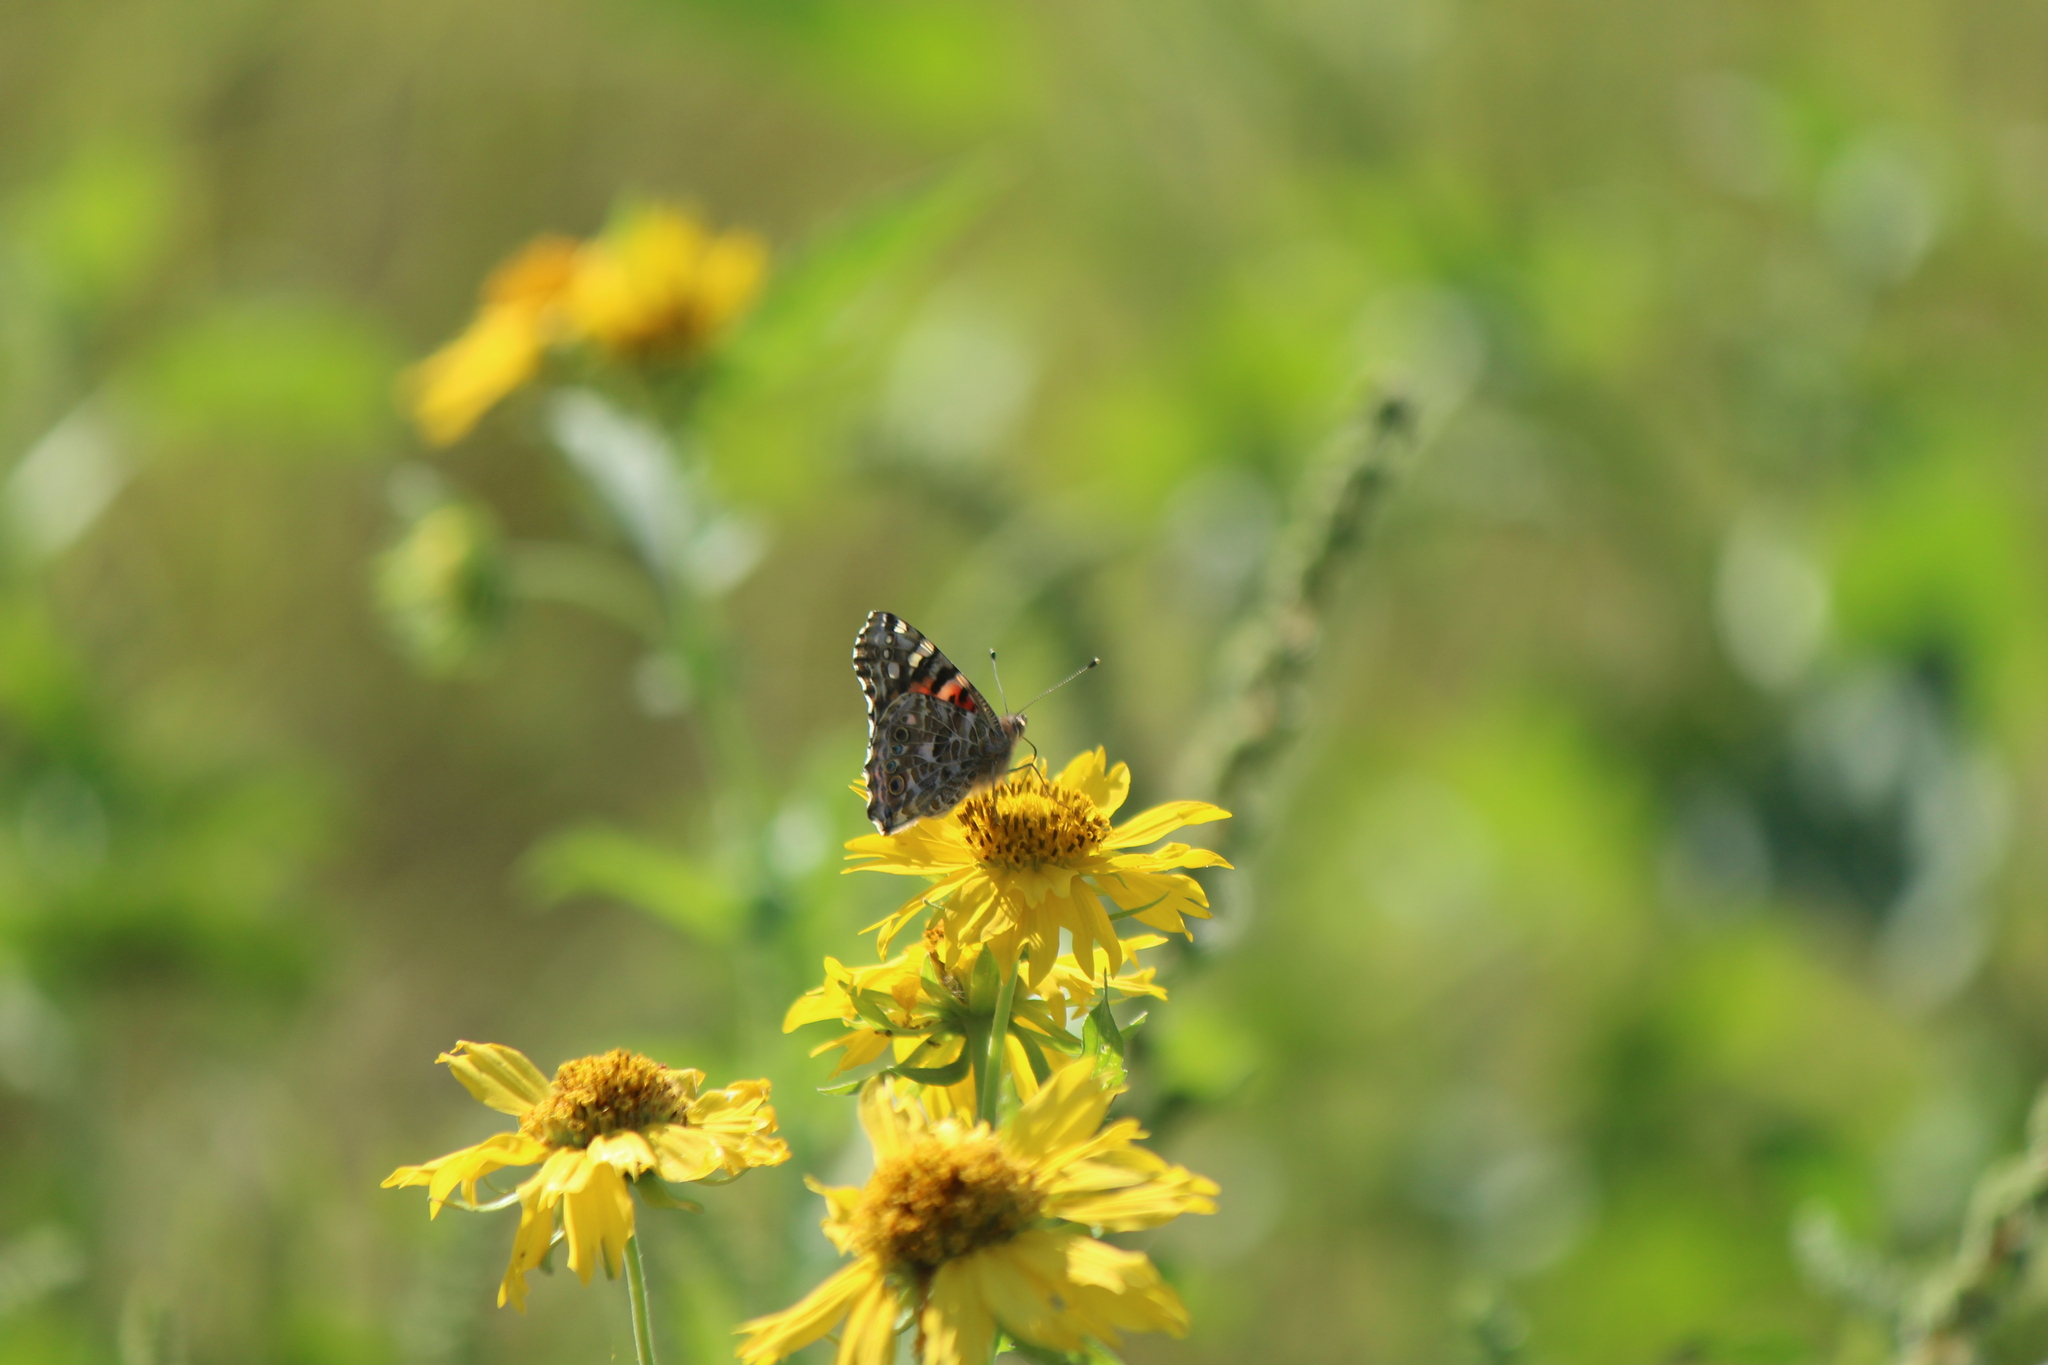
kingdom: Animalia
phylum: Arthropoda
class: Insecta
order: Lepidoptera
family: Nymphalidae
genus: Vanessa
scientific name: Vanessa cardui
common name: Painted lady
